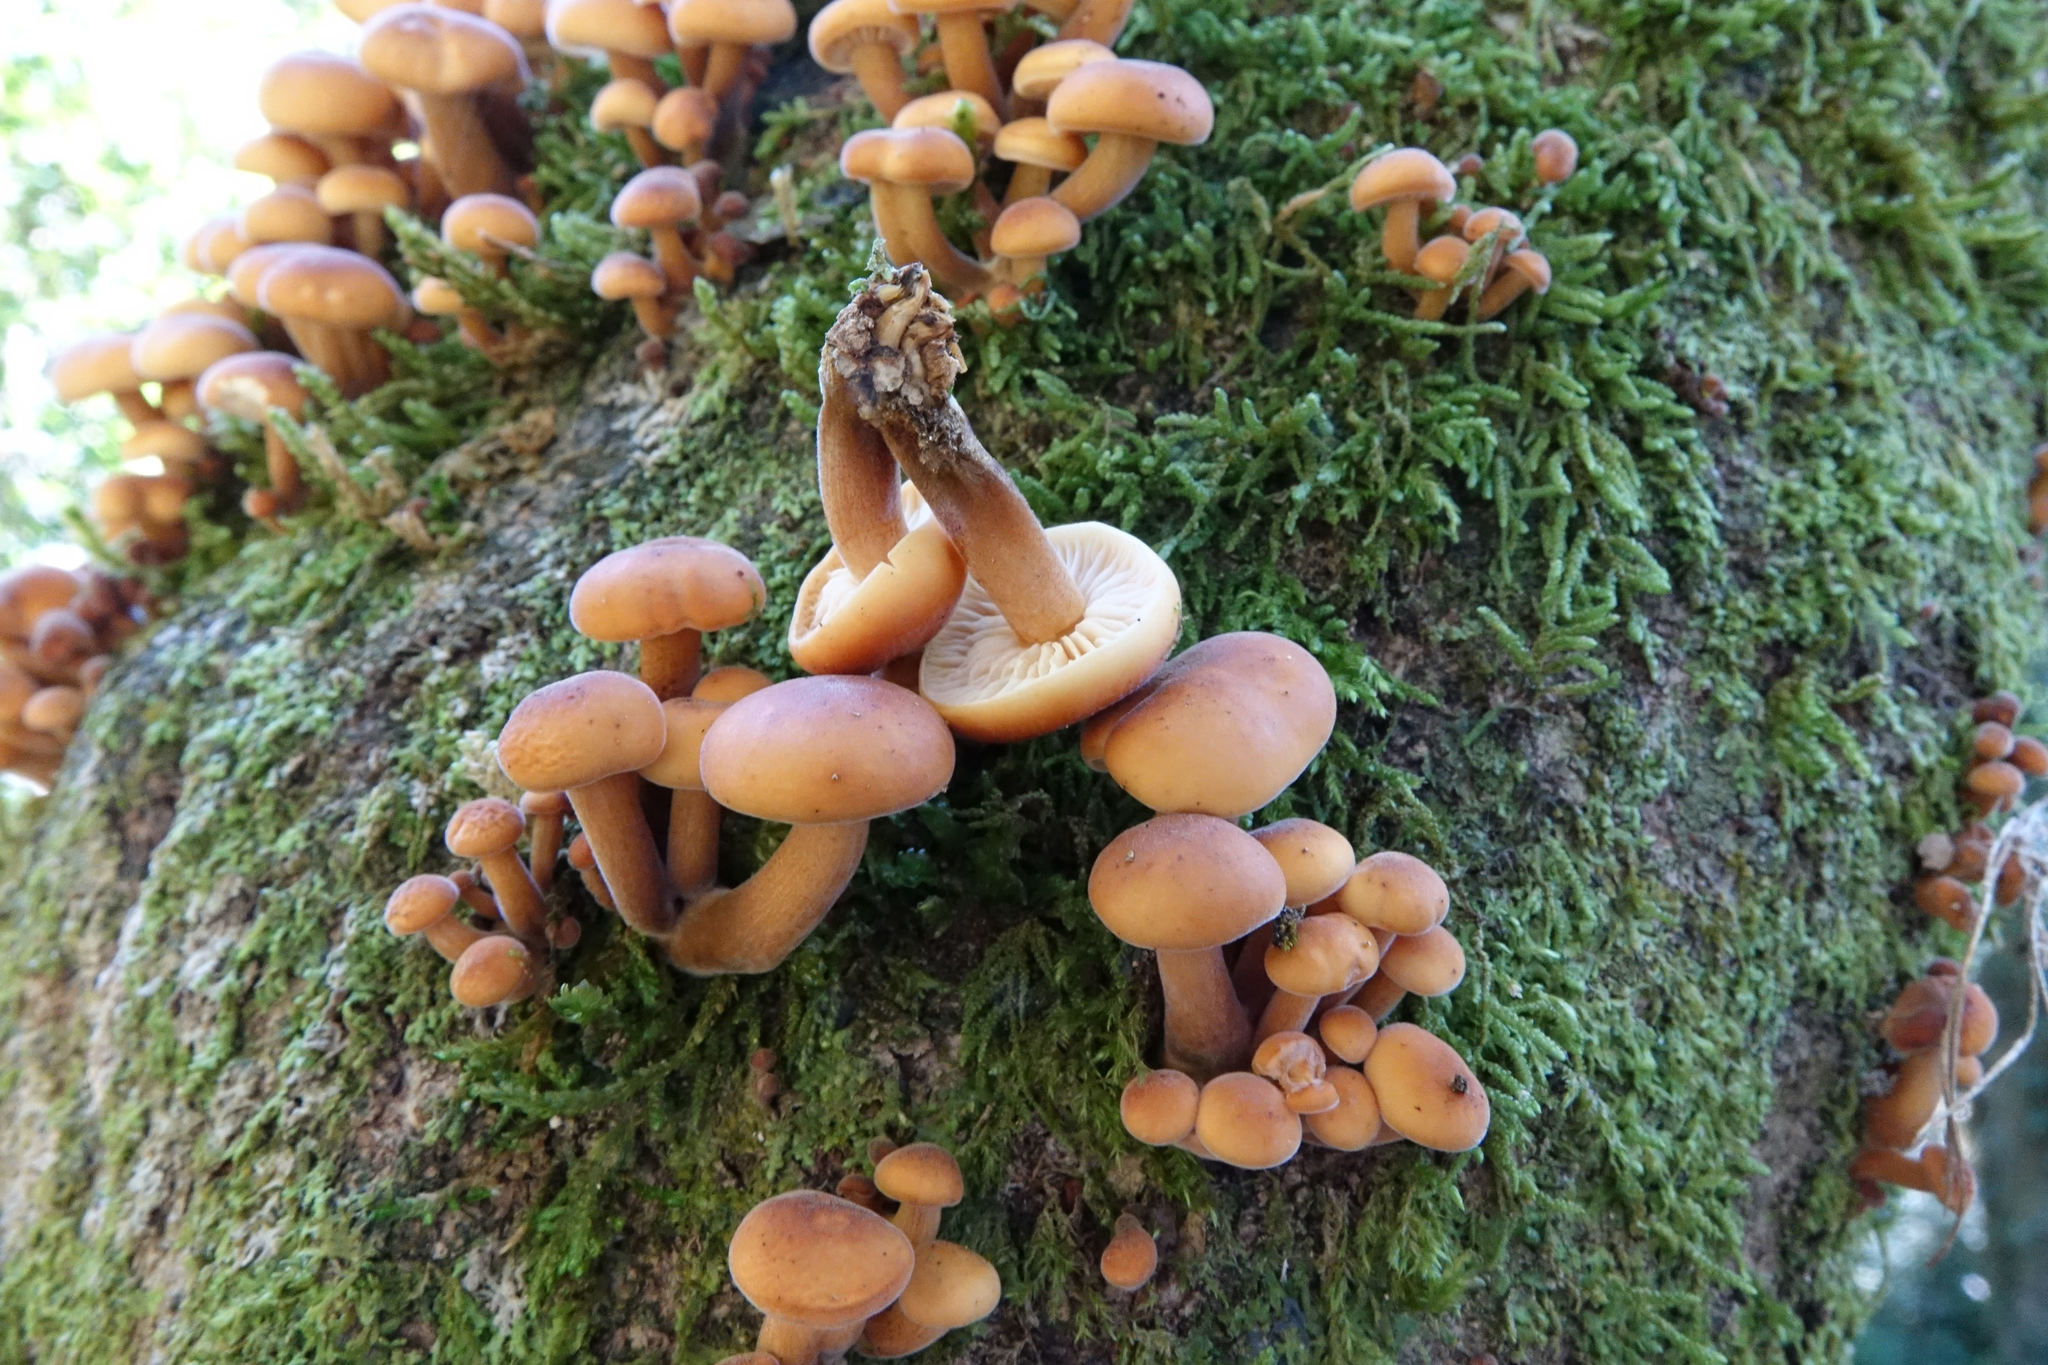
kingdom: Fungi
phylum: Basidiomycota
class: Agaricomycetes
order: Agaricales
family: Physalacriaceae
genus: Flammulina
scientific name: Flammulina velutipes
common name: Velvet shank
